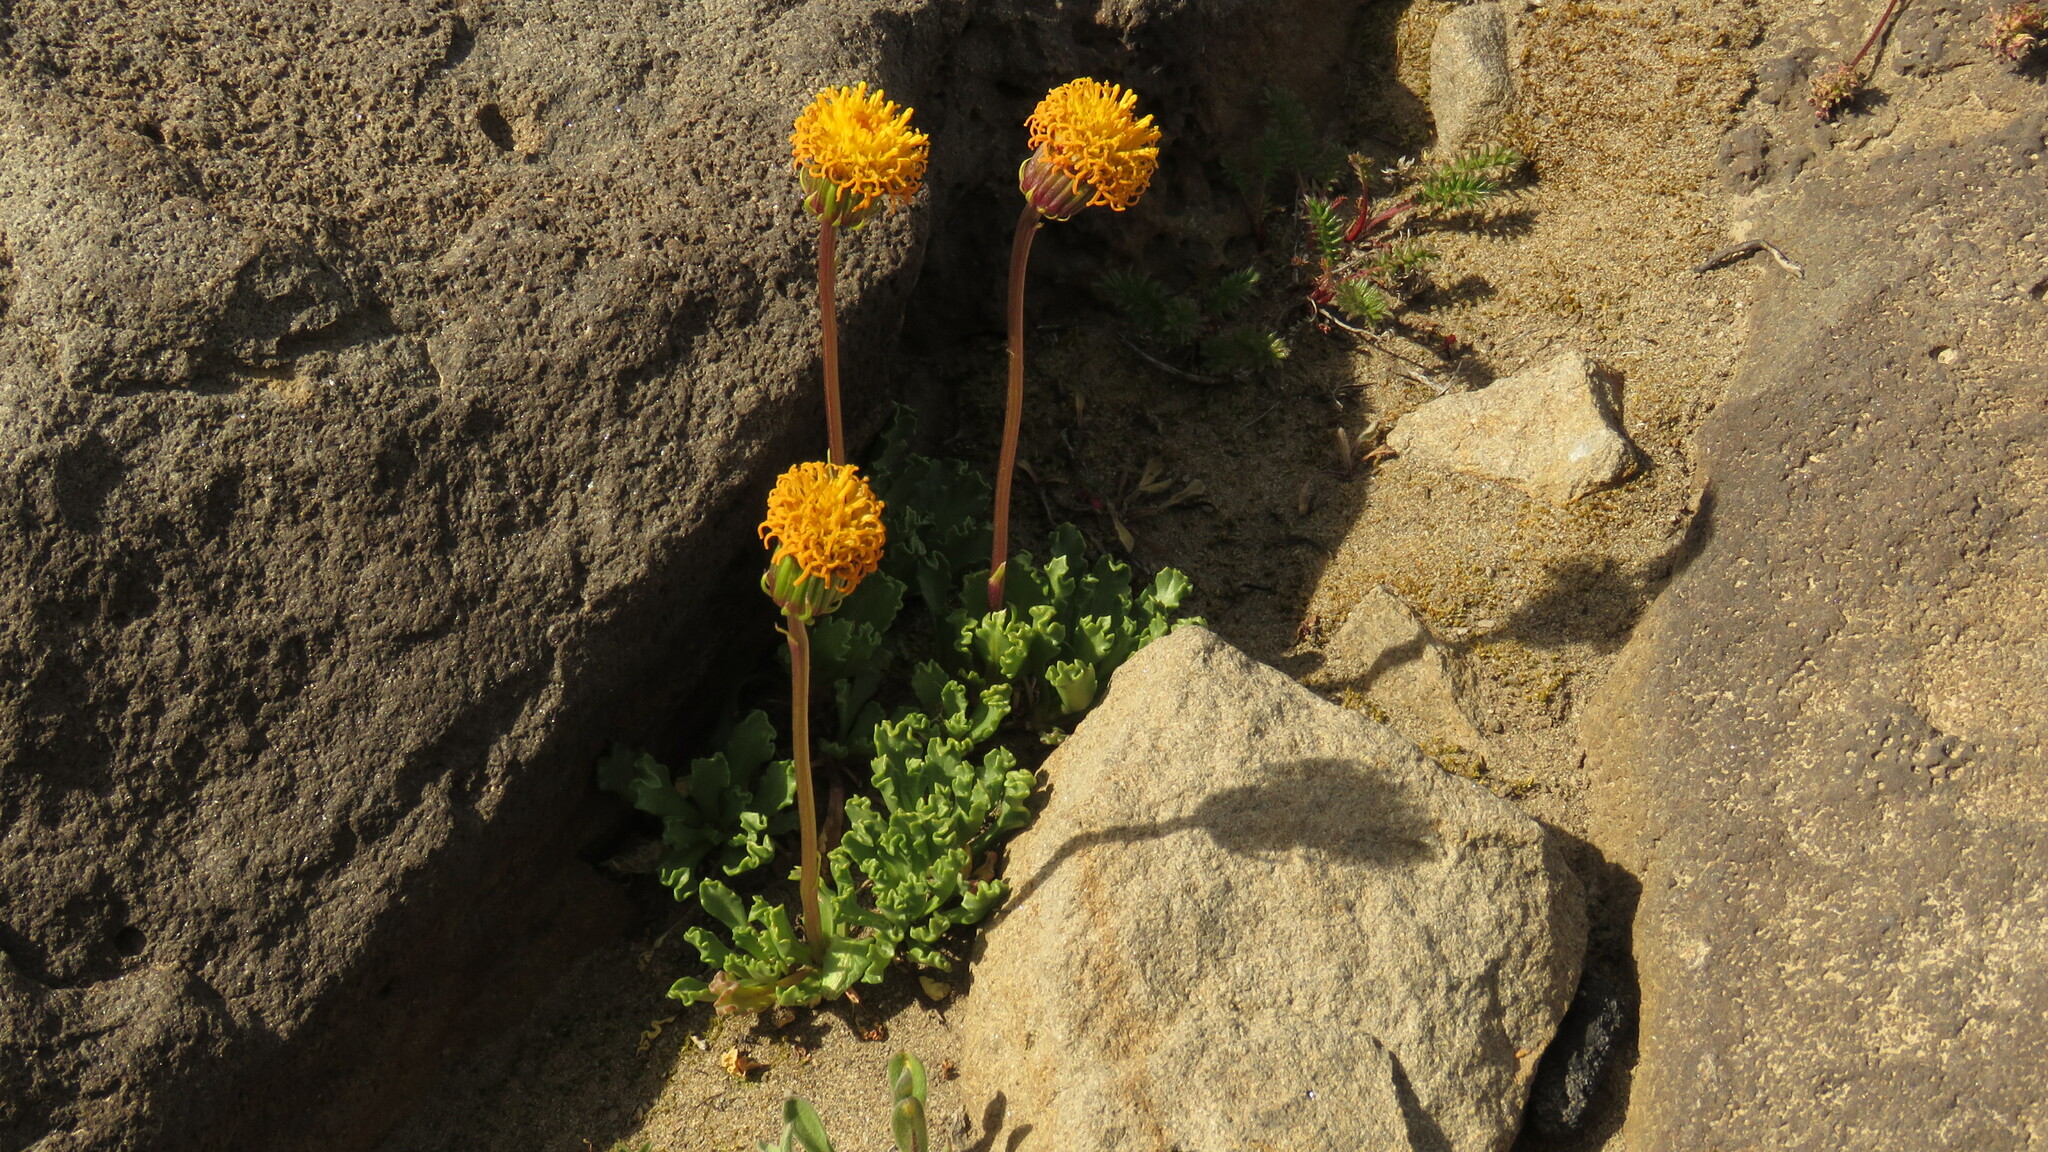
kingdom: Plantae
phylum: Tracheophyta
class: Magnoliopsida
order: Asterales
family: Asteraceae
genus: Senecio
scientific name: Senecio eremophilus
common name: Desert ragwort
